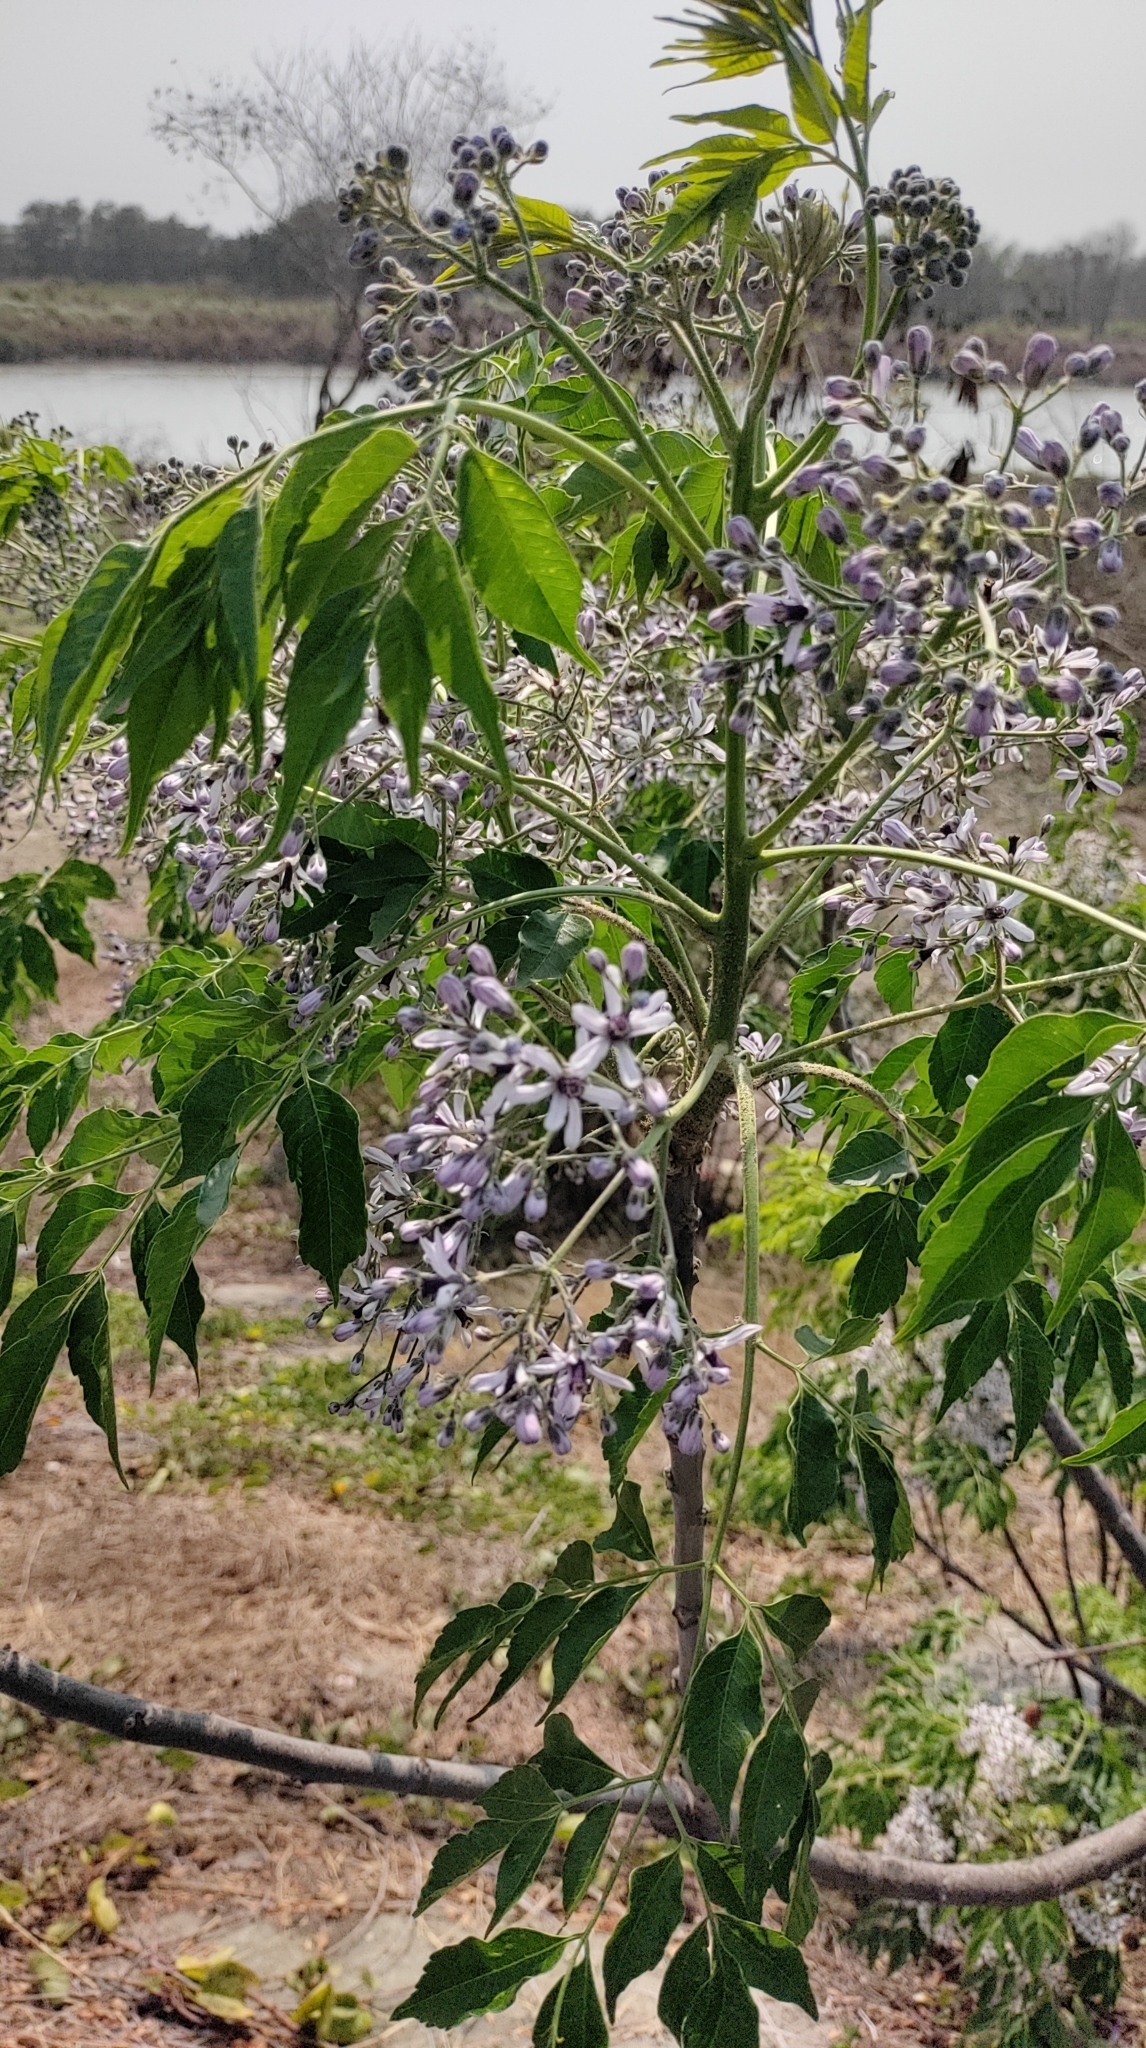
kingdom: Plantae
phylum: Tracheophyta
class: Magnoliopsida
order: Sapindales
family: Meliaceae
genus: Melia
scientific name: Melia azedarach
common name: Chinaberrytree
